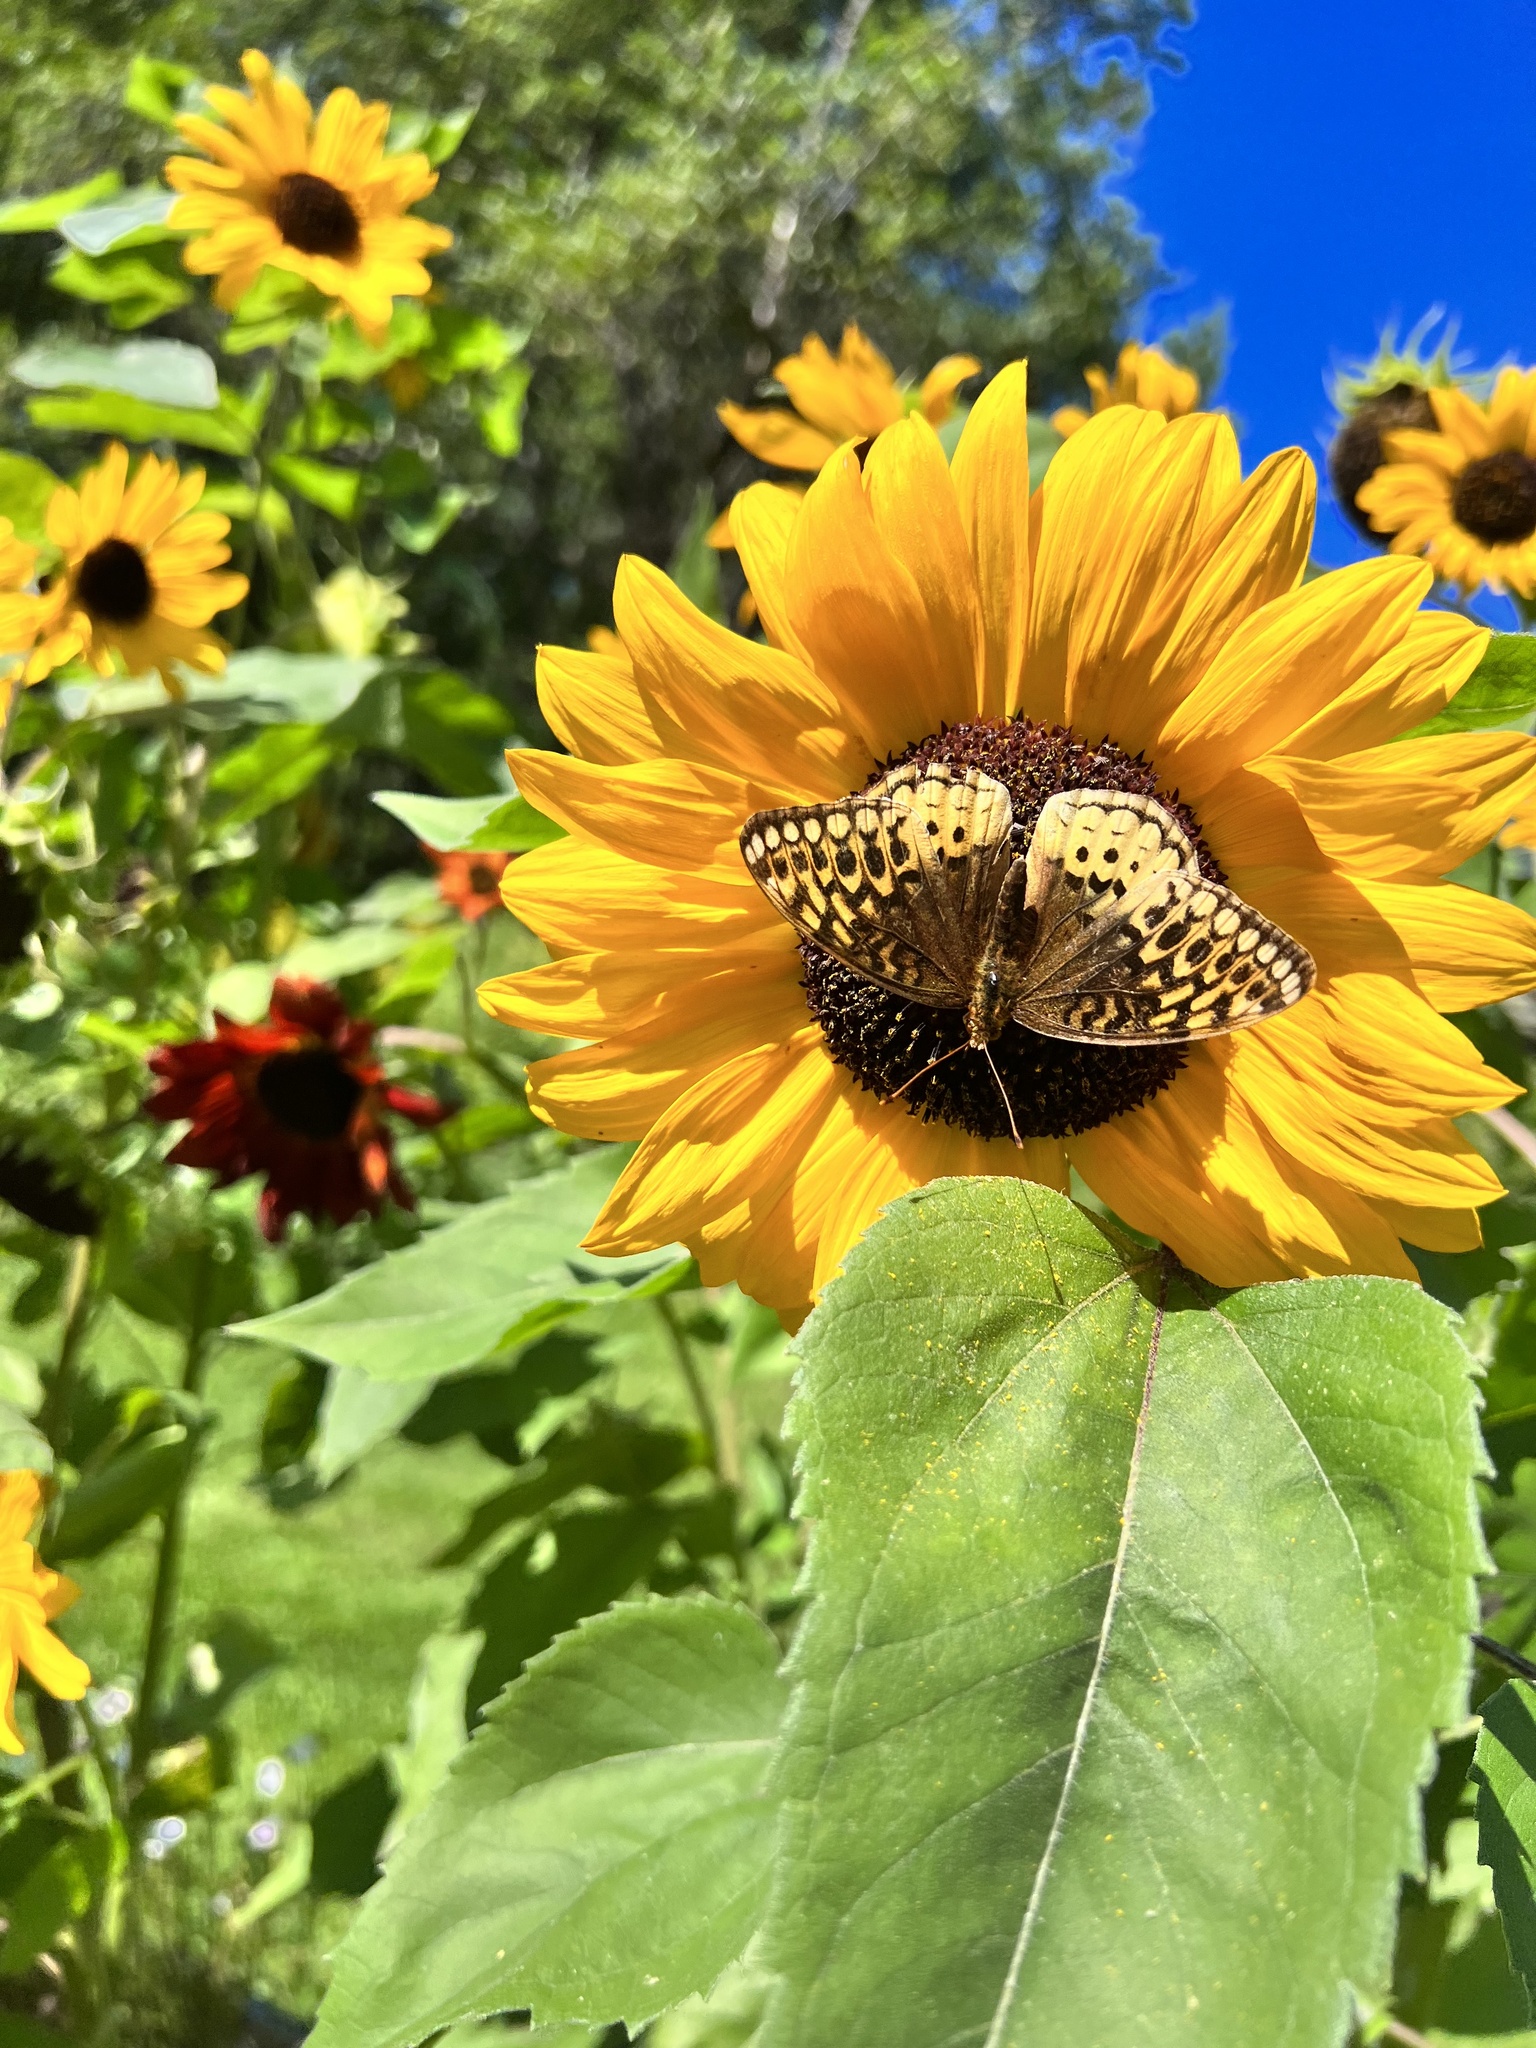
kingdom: Animalia
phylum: Arthropoda
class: Insecta
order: Lepidoptera
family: Nymphalidae
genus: Speyeria
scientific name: Speyeria cybele
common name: Great spangled fritillary
